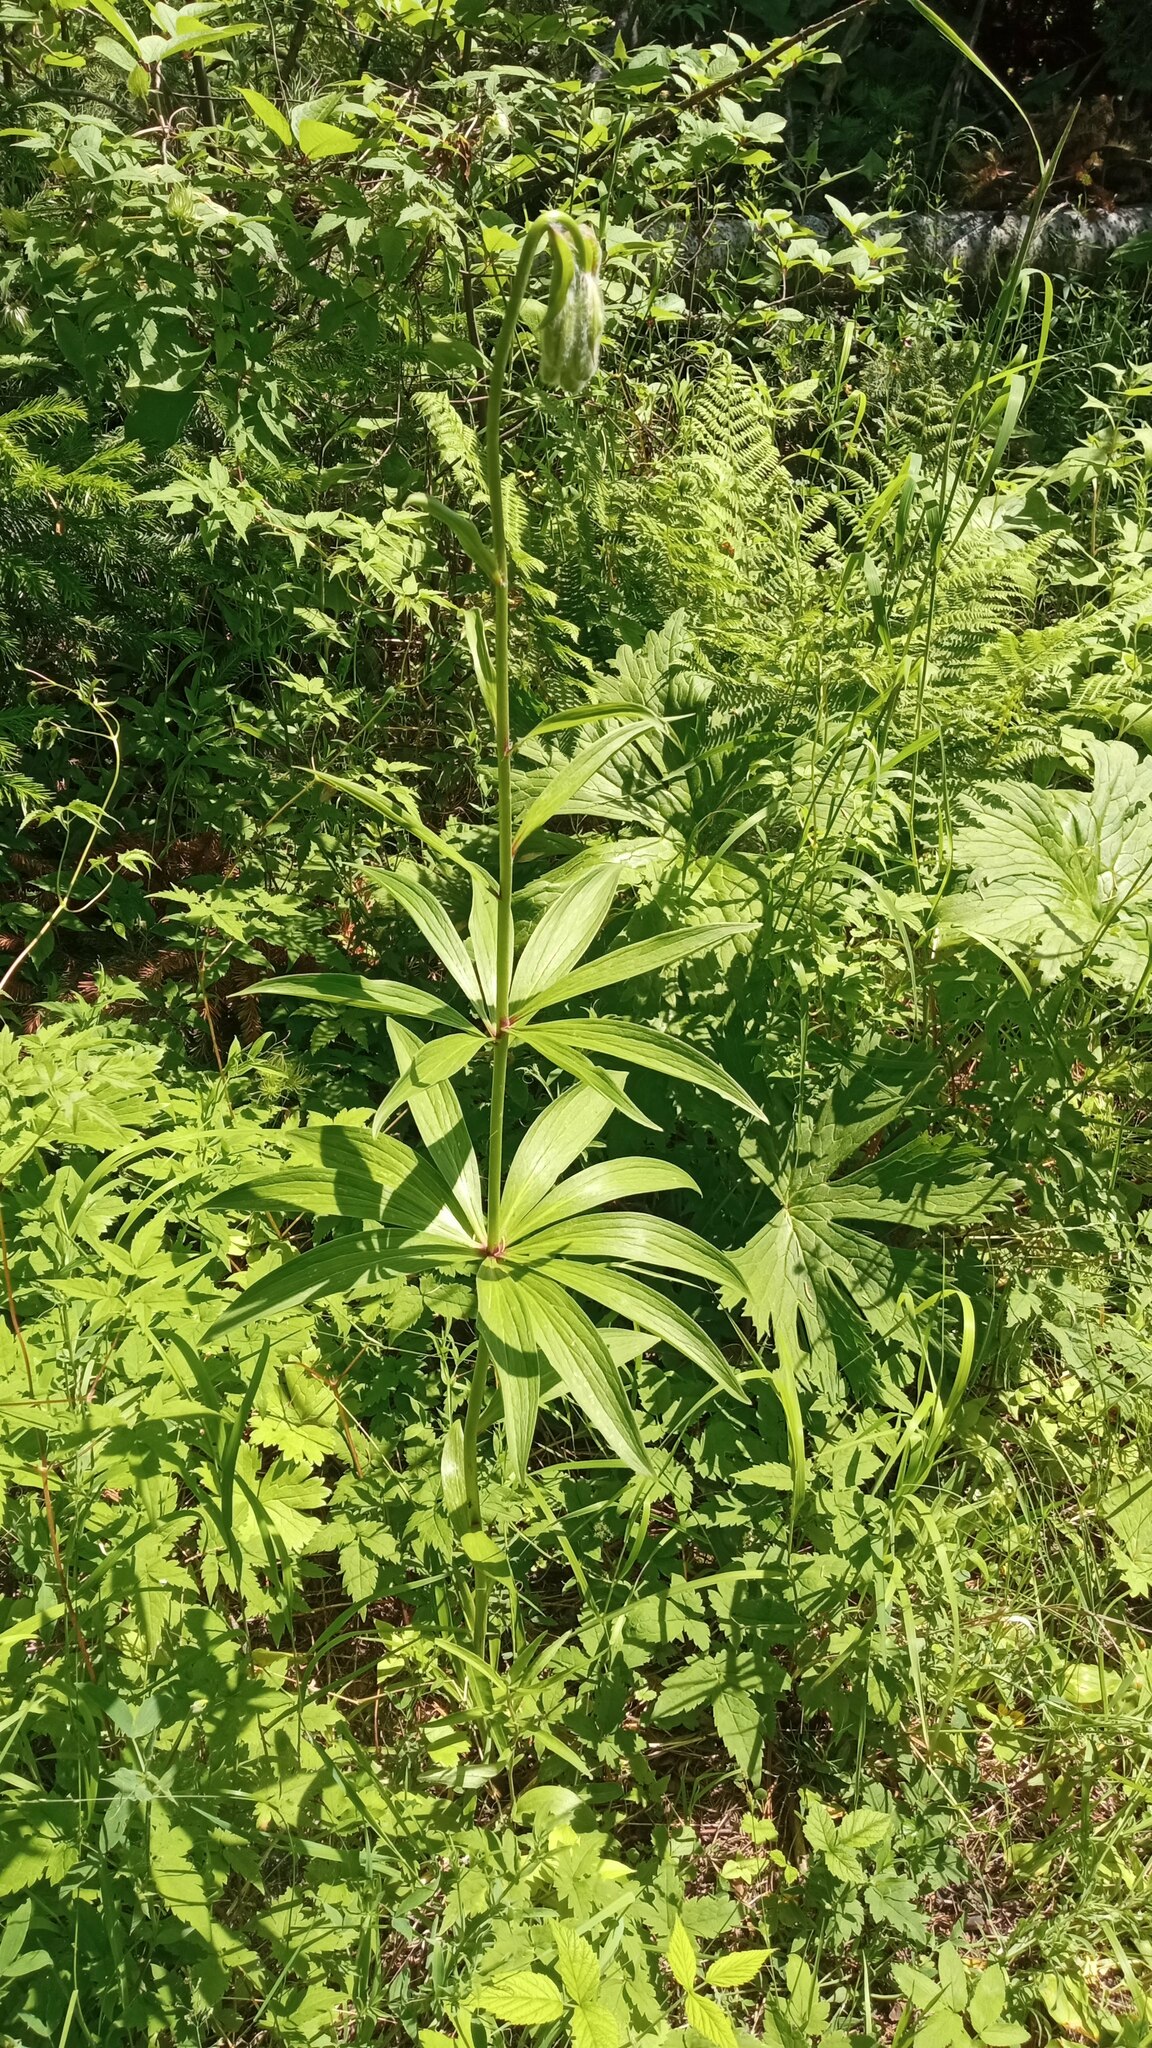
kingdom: Plantae
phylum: Tracheophyta
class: Liliopsida
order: Liliales
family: Liliaceae
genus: Lilium
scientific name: Lilium martagon
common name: Martagon lily
